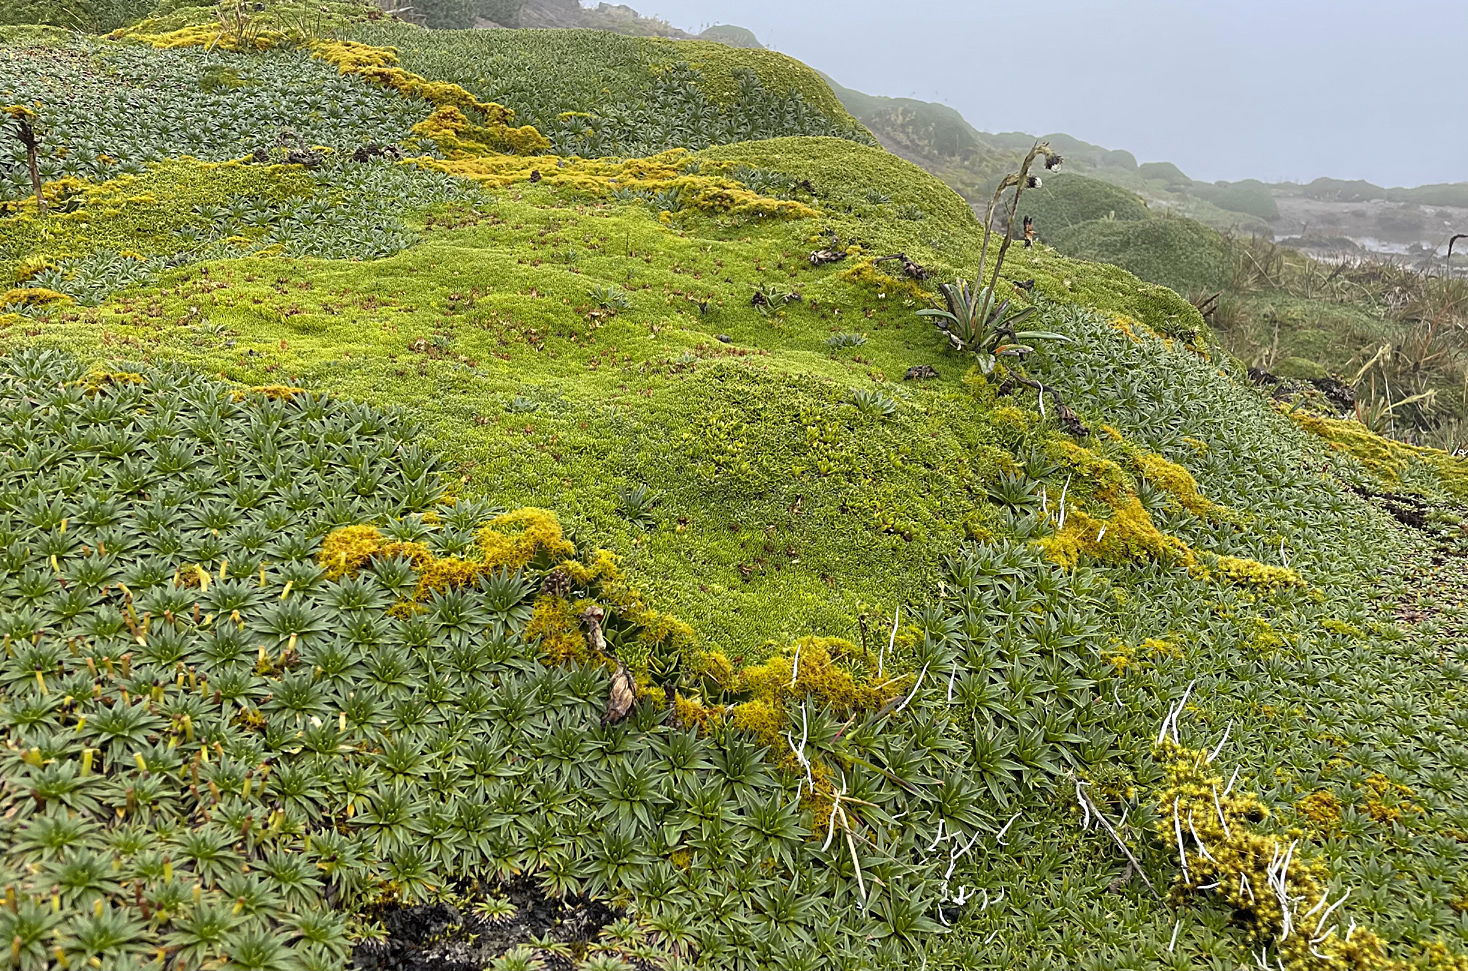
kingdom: Plantae
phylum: Tracheophyta
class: Magnoliopsida
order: Lamiales
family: Plantaginaceae
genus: Plantago
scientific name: Plantago rigida
